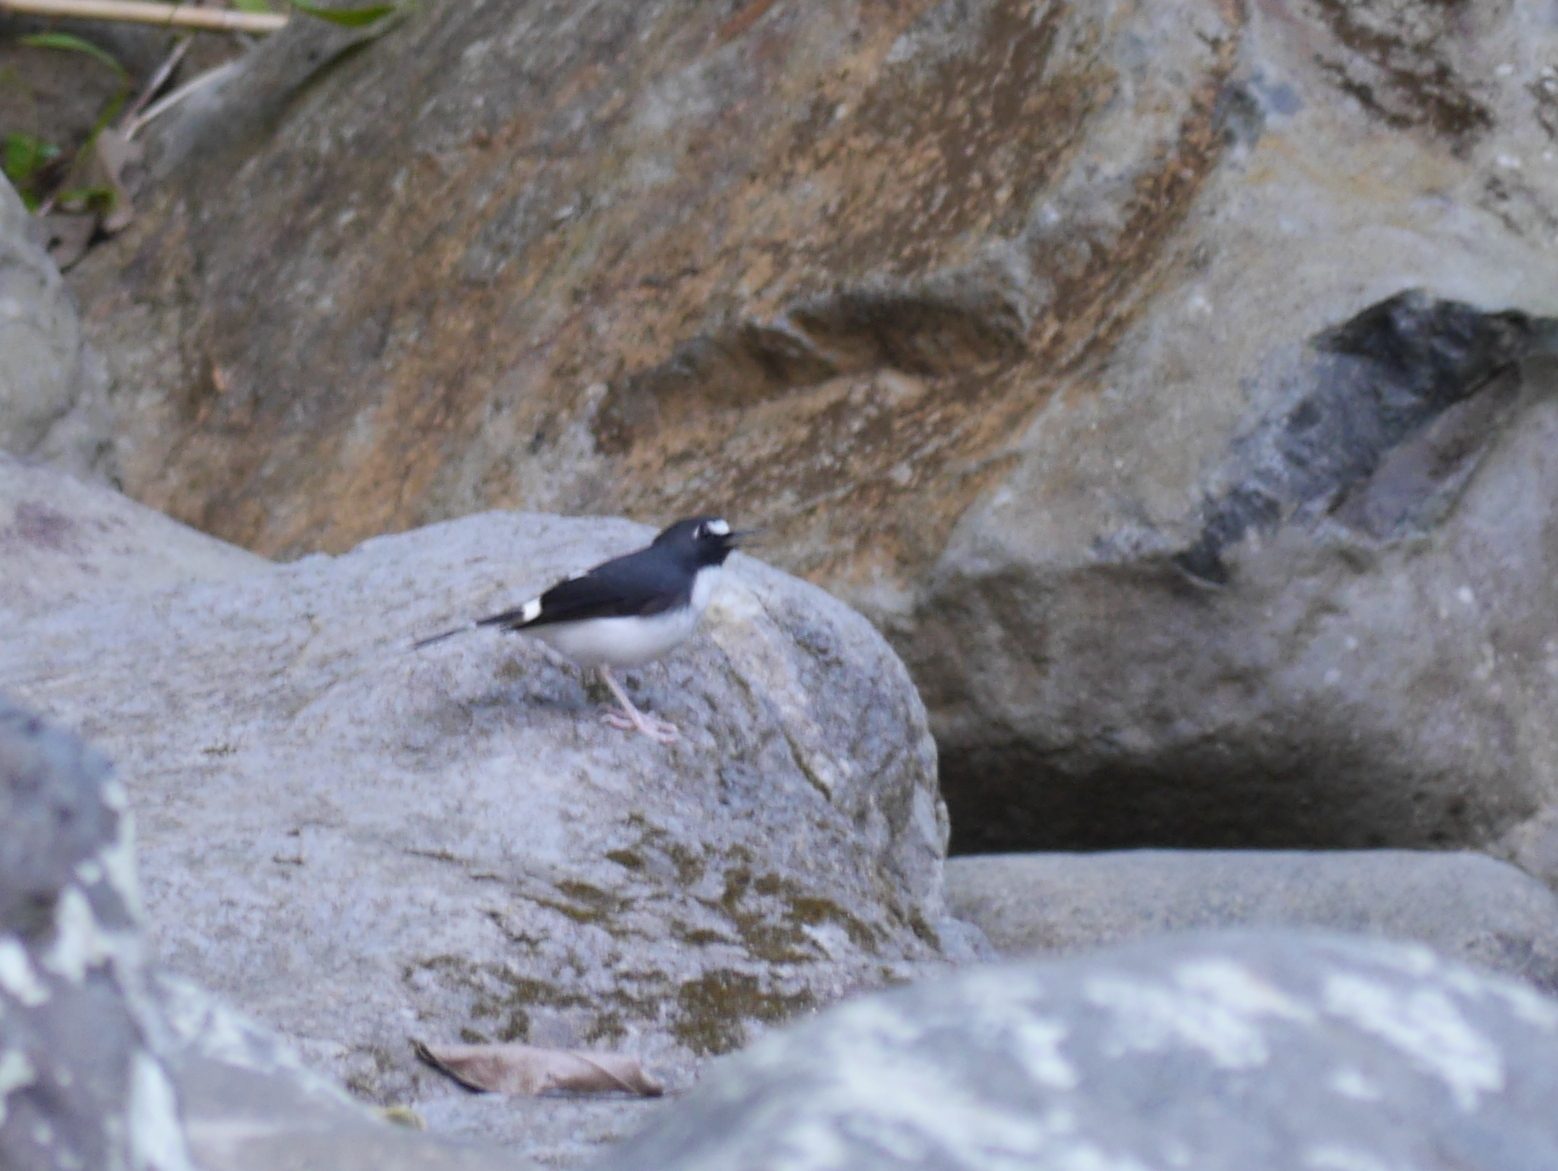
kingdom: Animalia
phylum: Chordata
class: Aves
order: Passeriformes
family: Muscicapidae
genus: Enicurus
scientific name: Enicurus velatus
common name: Sunda forktail
